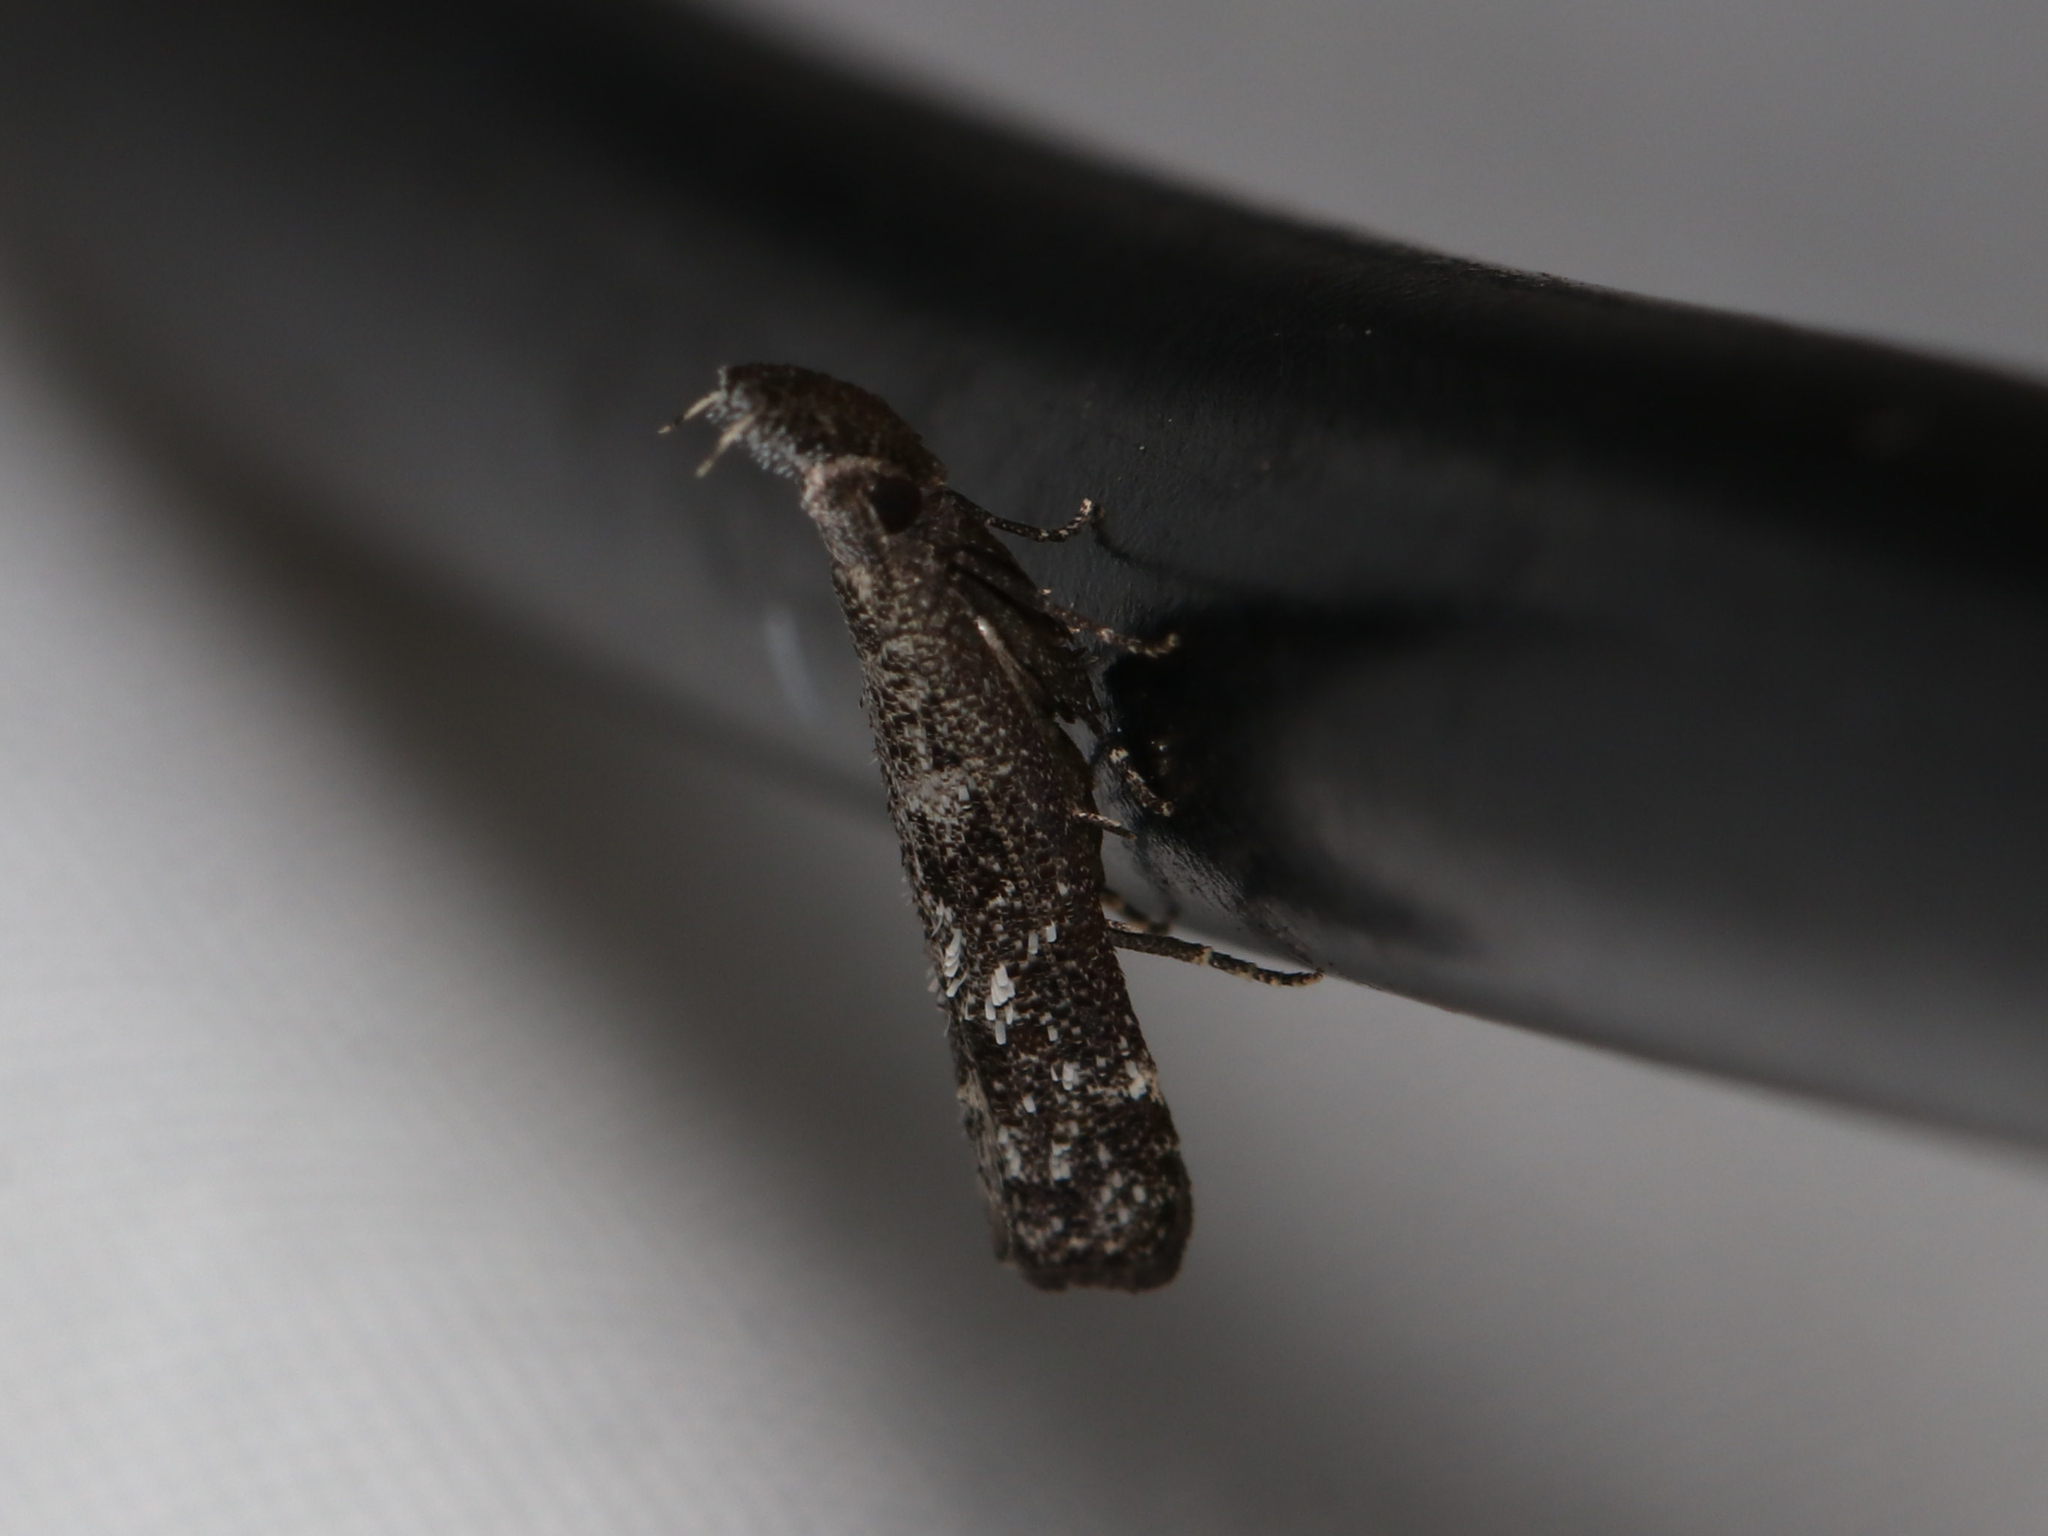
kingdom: Animalia
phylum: Arthropoda
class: Insecta
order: Lepidoptera
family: Gelechiidae
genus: Dichomeris
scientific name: Dichomeris inversella
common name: Inverse dichomeris moth
